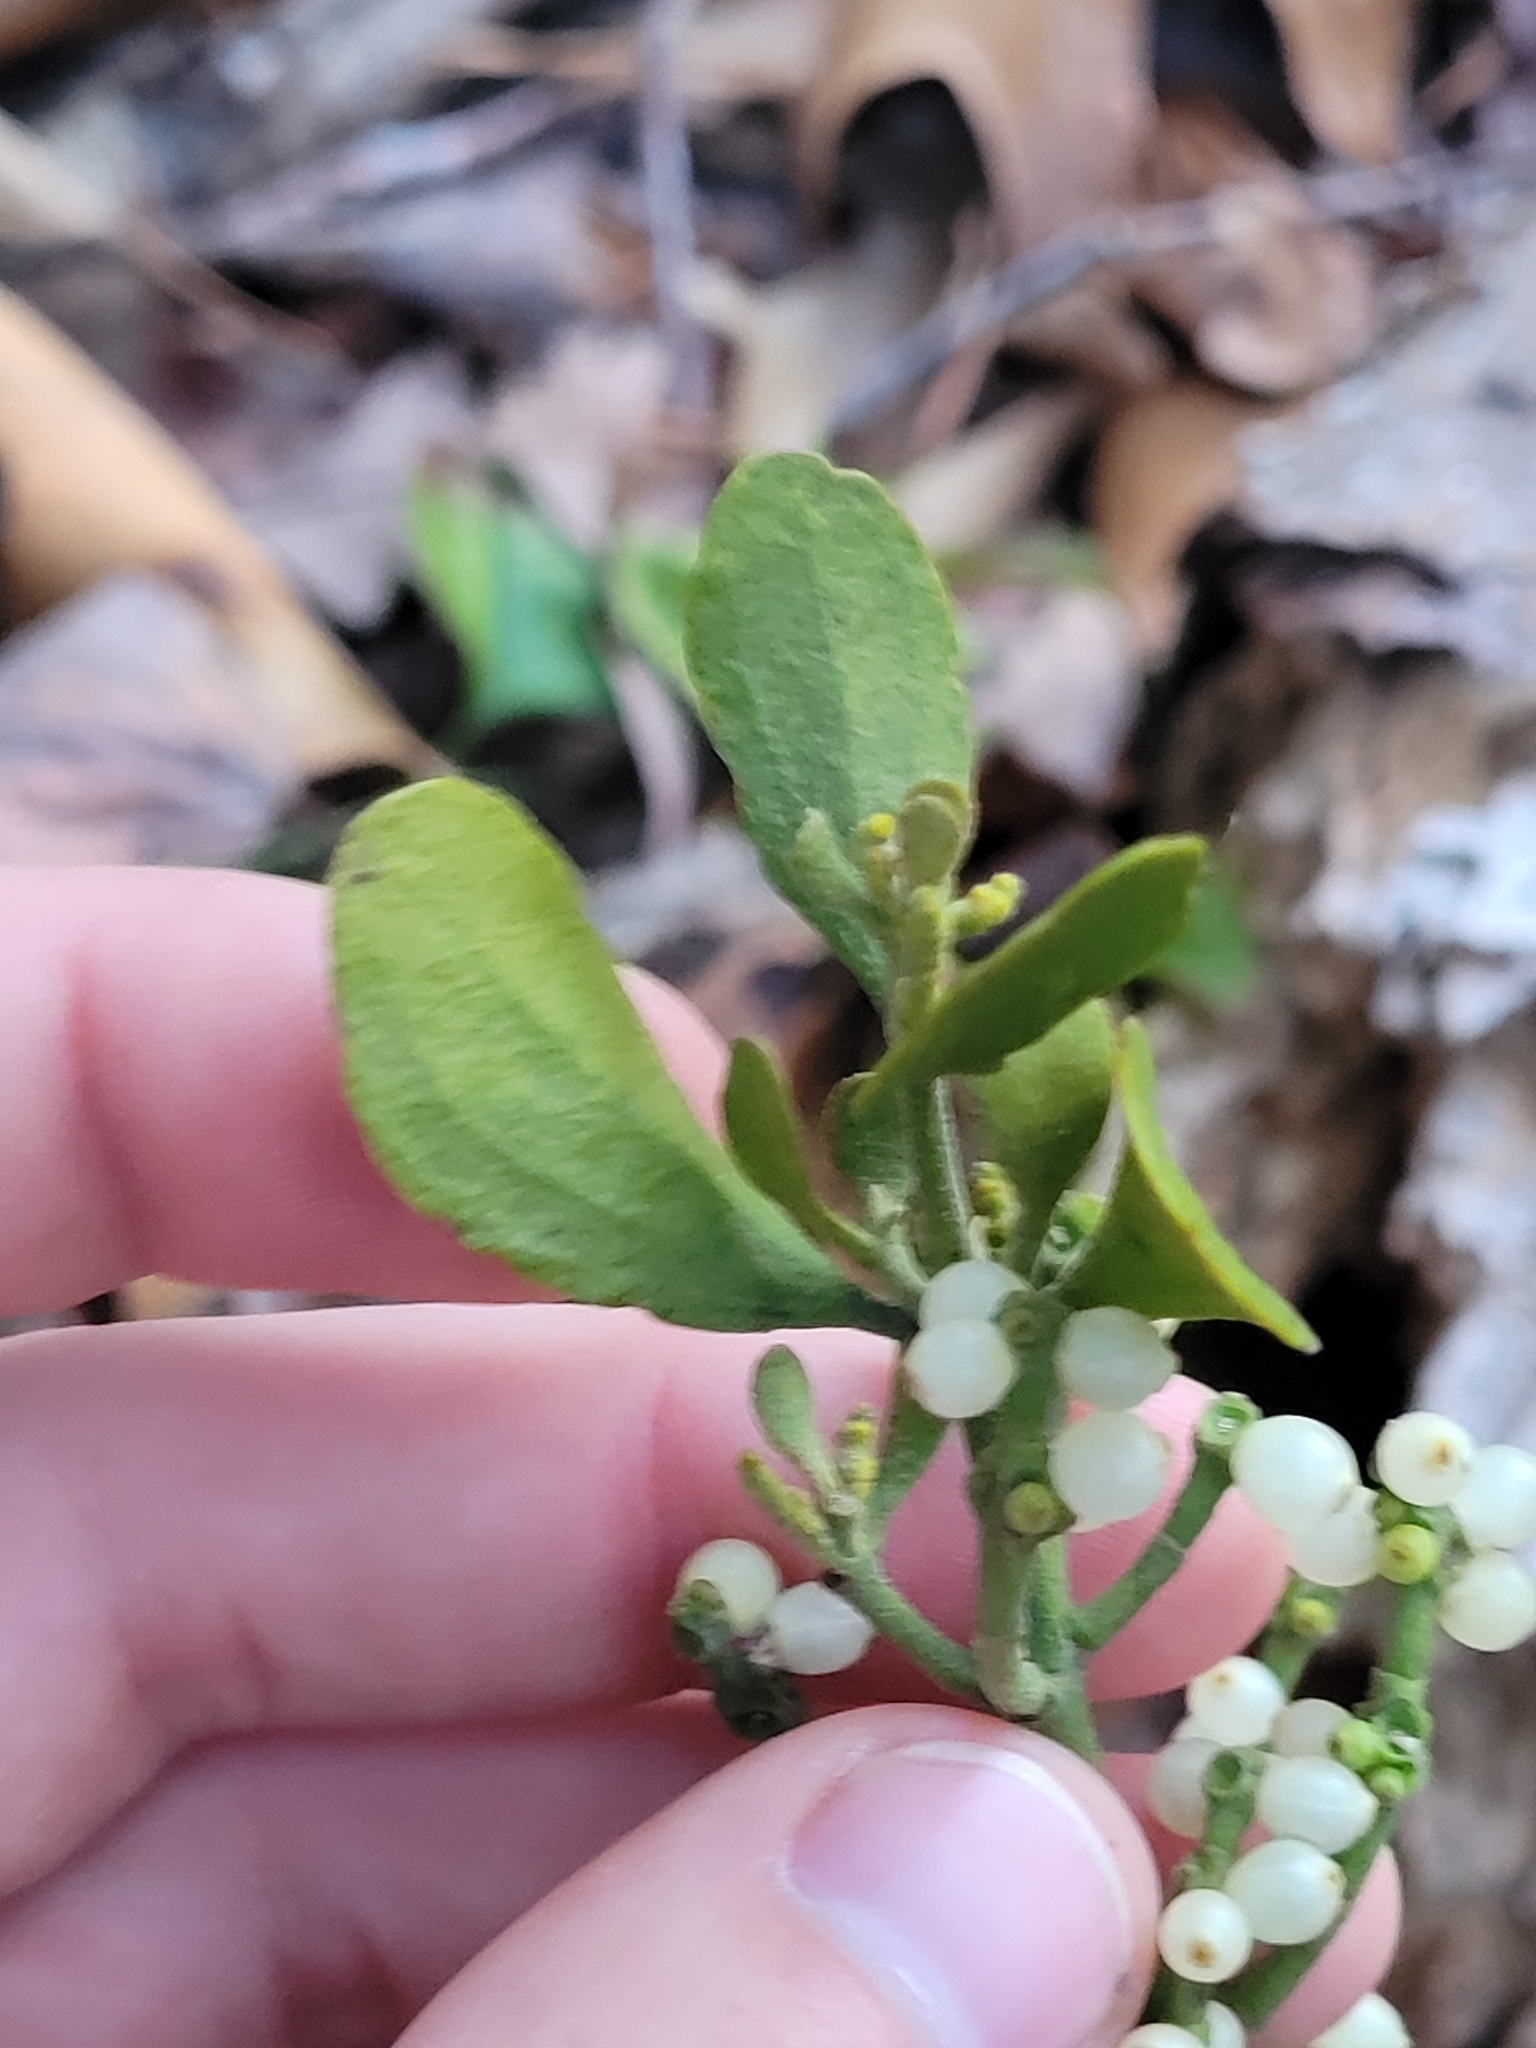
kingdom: Plantae
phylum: Tracheophyta
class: Magnoliopsida
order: Santalales
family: Viscaceae
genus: Phoradendron
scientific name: Phoradendron leucarpum
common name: Pacific mistletoe
